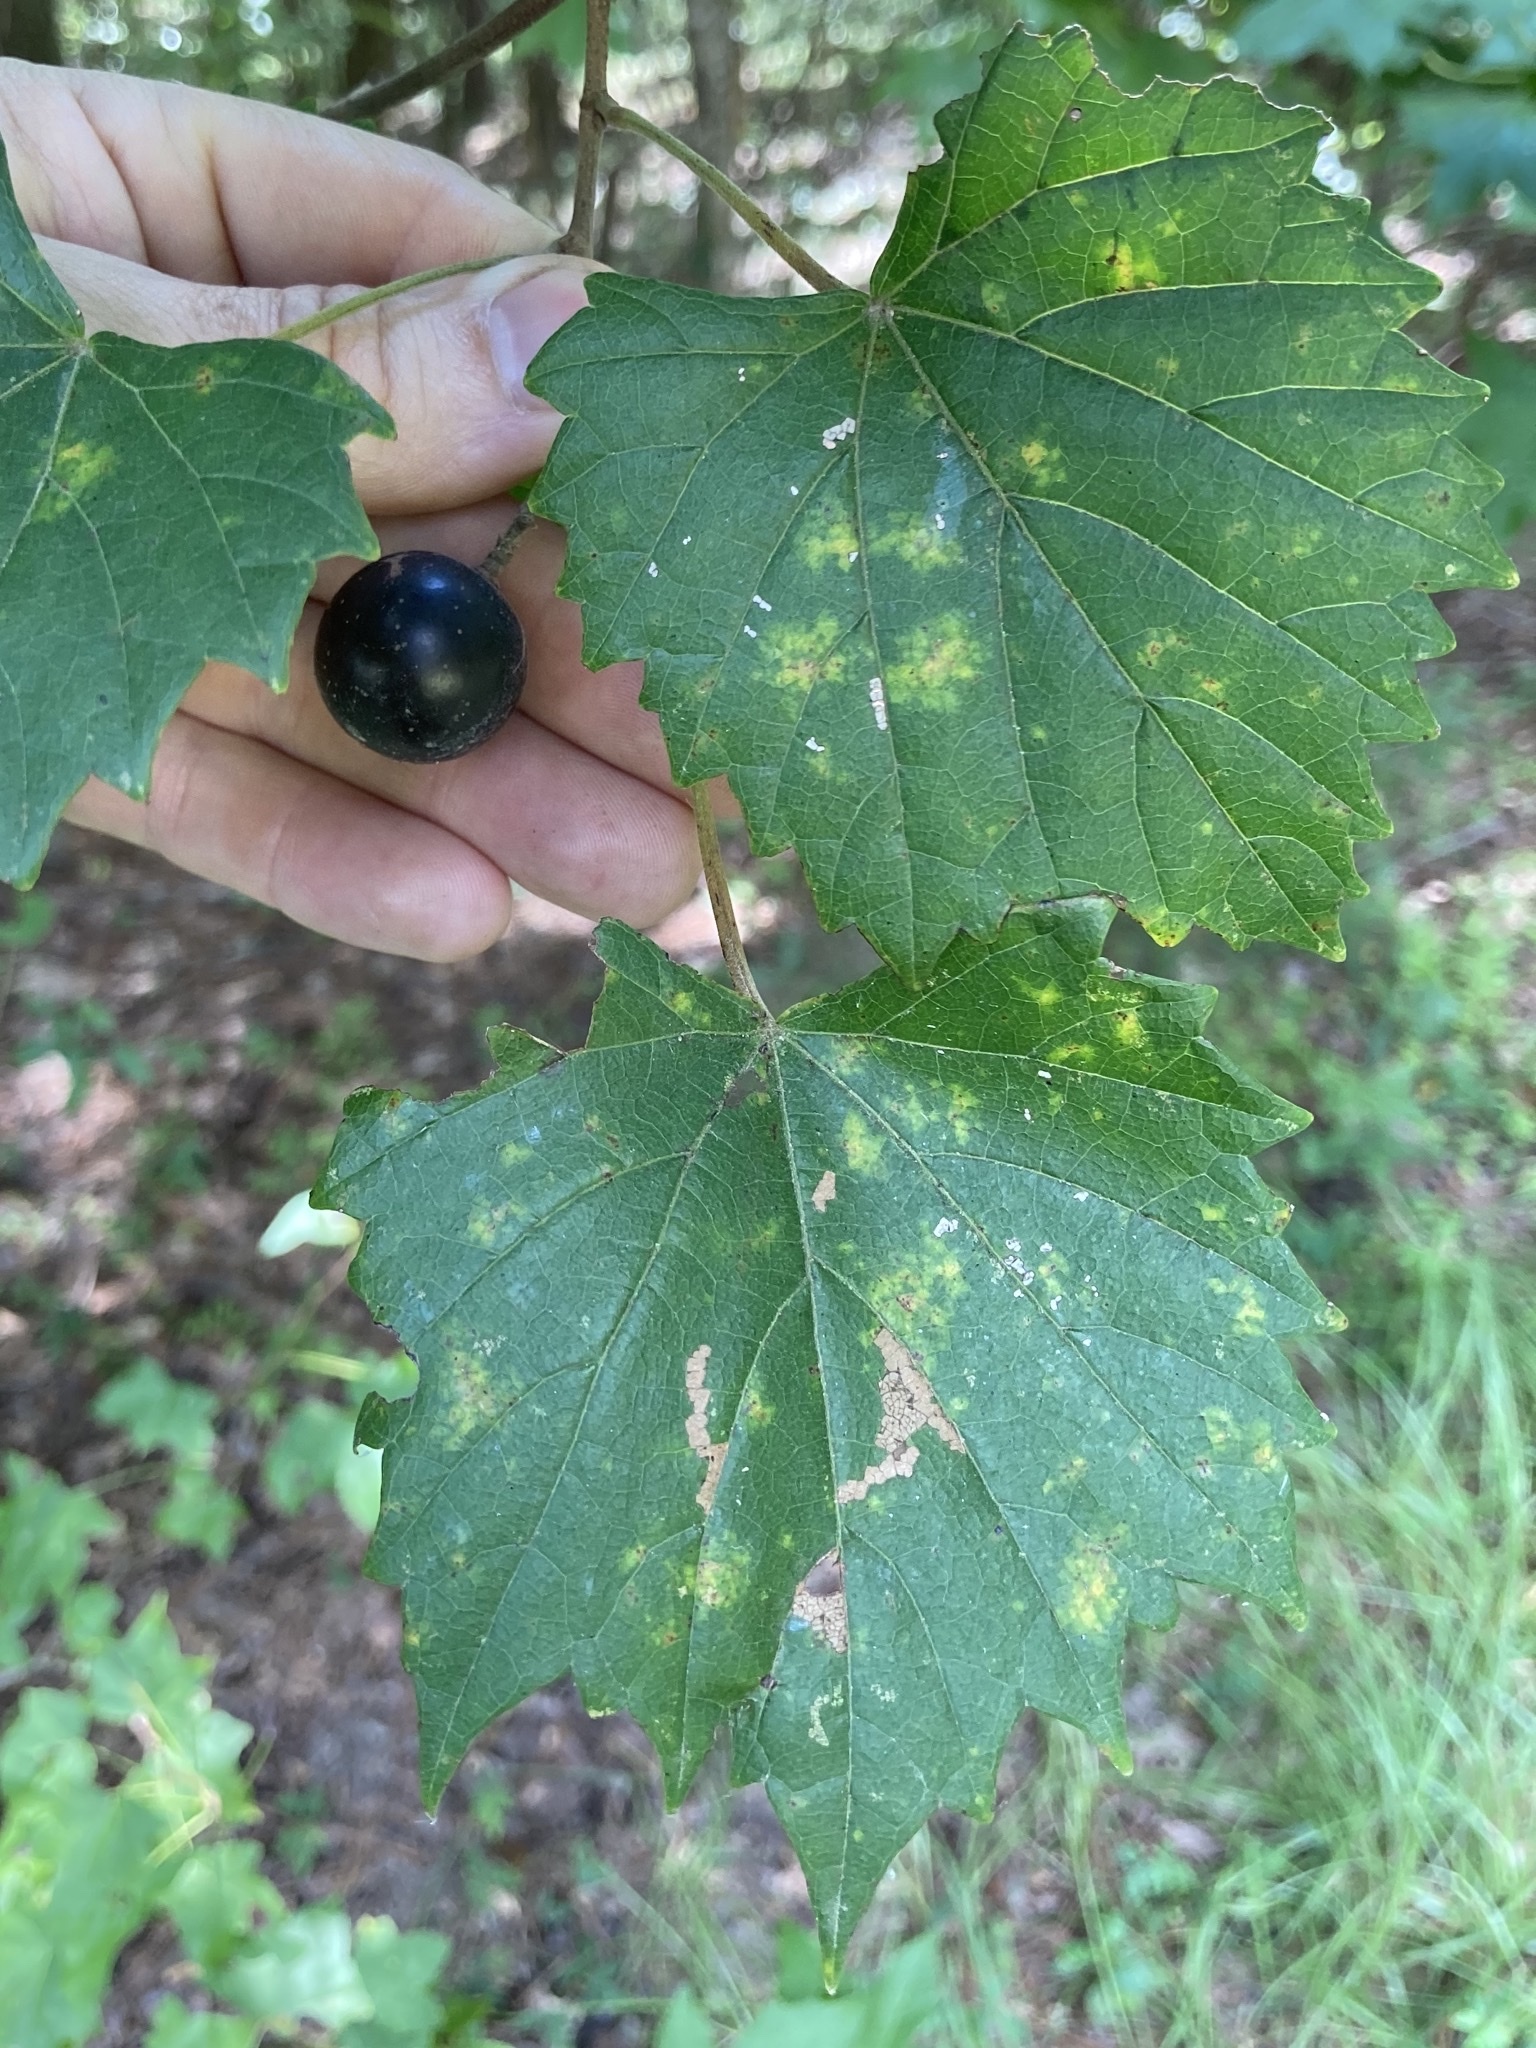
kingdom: Plantae
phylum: Tracheophyta
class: Magnoliopsida
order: Vitales
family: Vitaceae
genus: Vitis
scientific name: Vitis rotundifolia
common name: Muscadine grape
